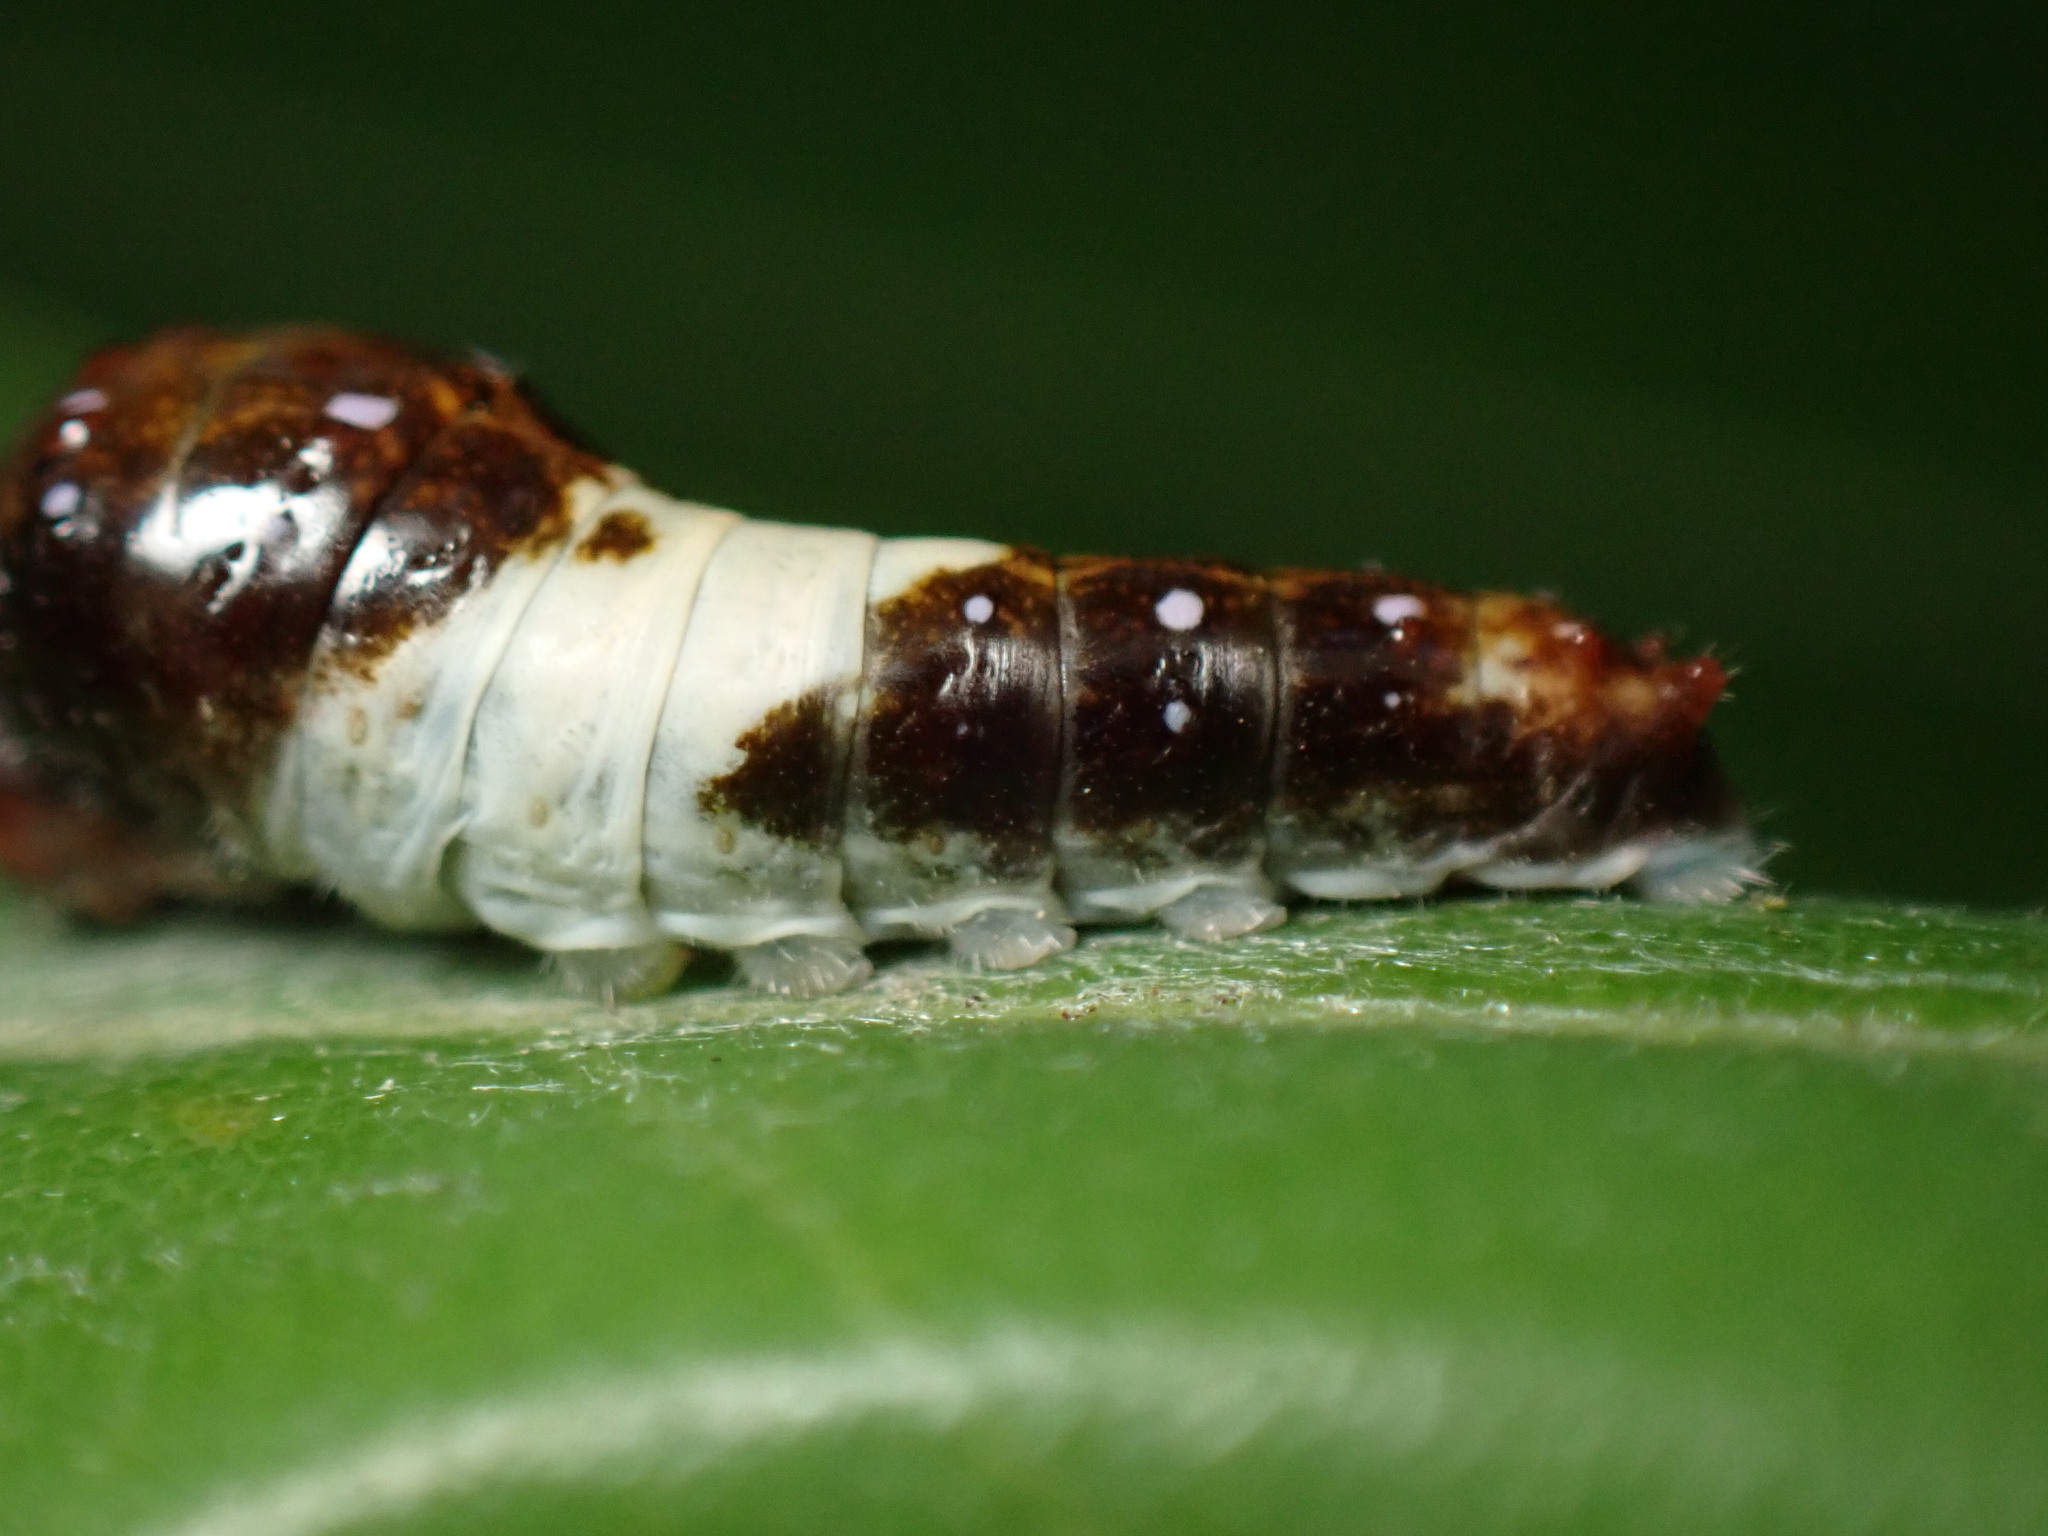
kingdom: Animalia
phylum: Arthropoda
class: Insecta
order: Lepidoptera
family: Papilionidae
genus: Papilio
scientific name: Papilio glaucus
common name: Tiger swallowtail
